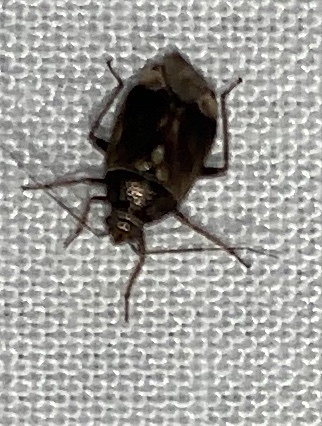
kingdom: Animalia
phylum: Arthropoda
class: Insecta
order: Hemiptera
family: Miridae
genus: Lygus
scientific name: Lygus lineolaris
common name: North american tarnished plant bug
